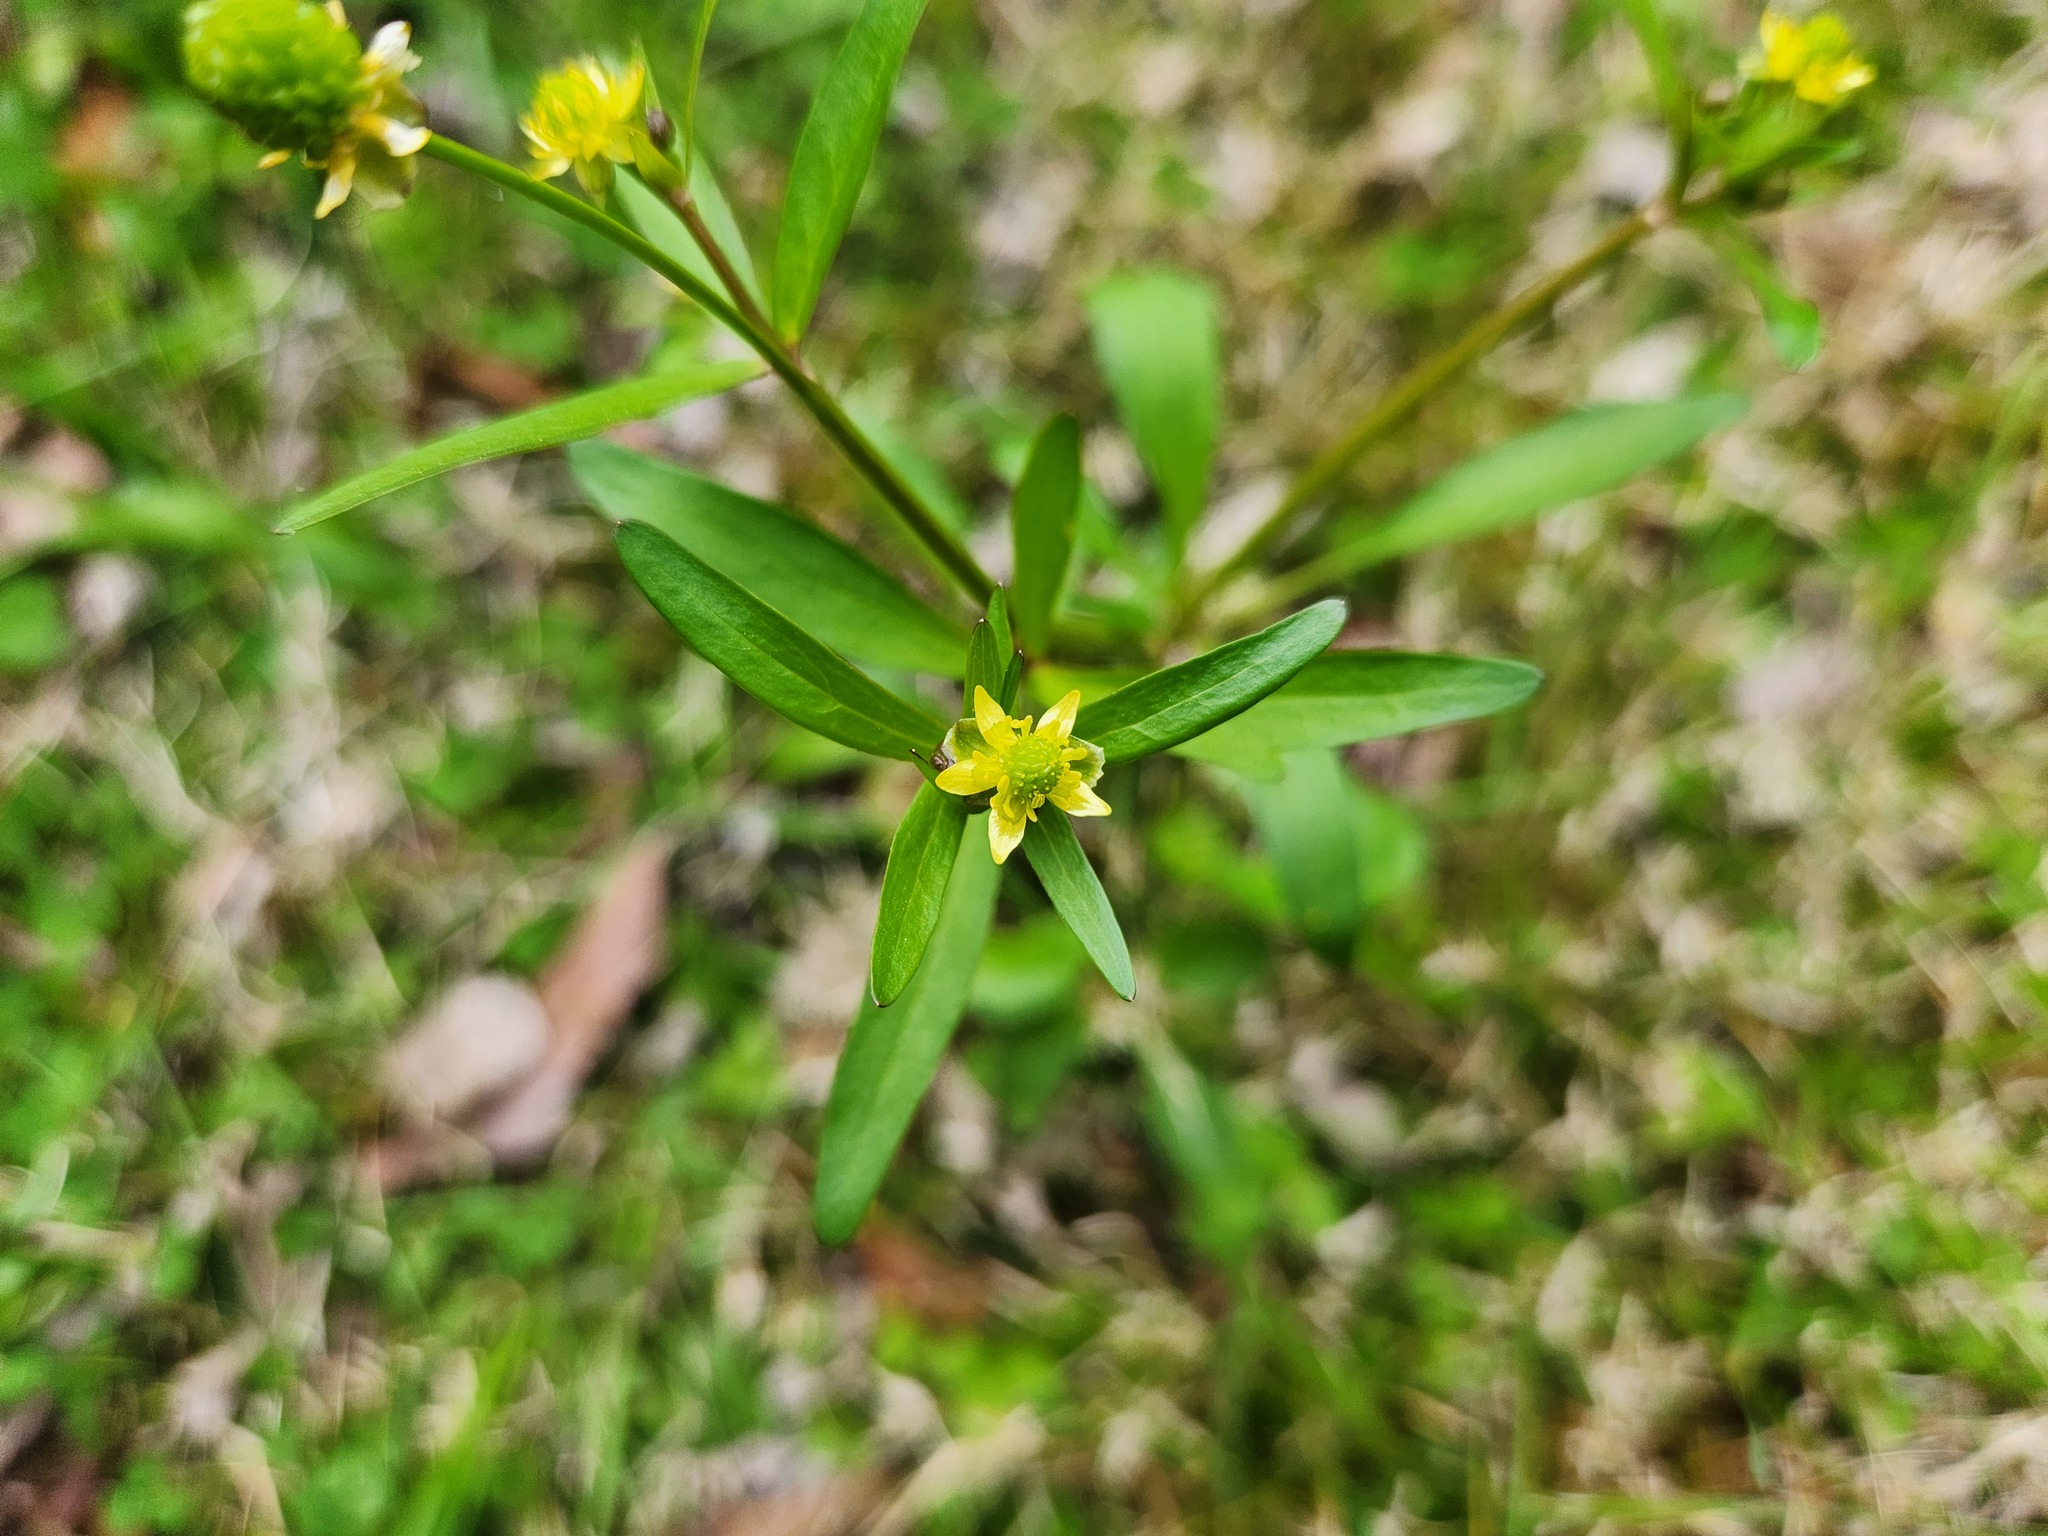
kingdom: Plantae
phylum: Tracheophyta
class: Magnoliopsida
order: Ranunculales
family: Ranunculaceae
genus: Ranunculus
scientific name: Ranunculus abortivus
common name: Early wood buttercup
